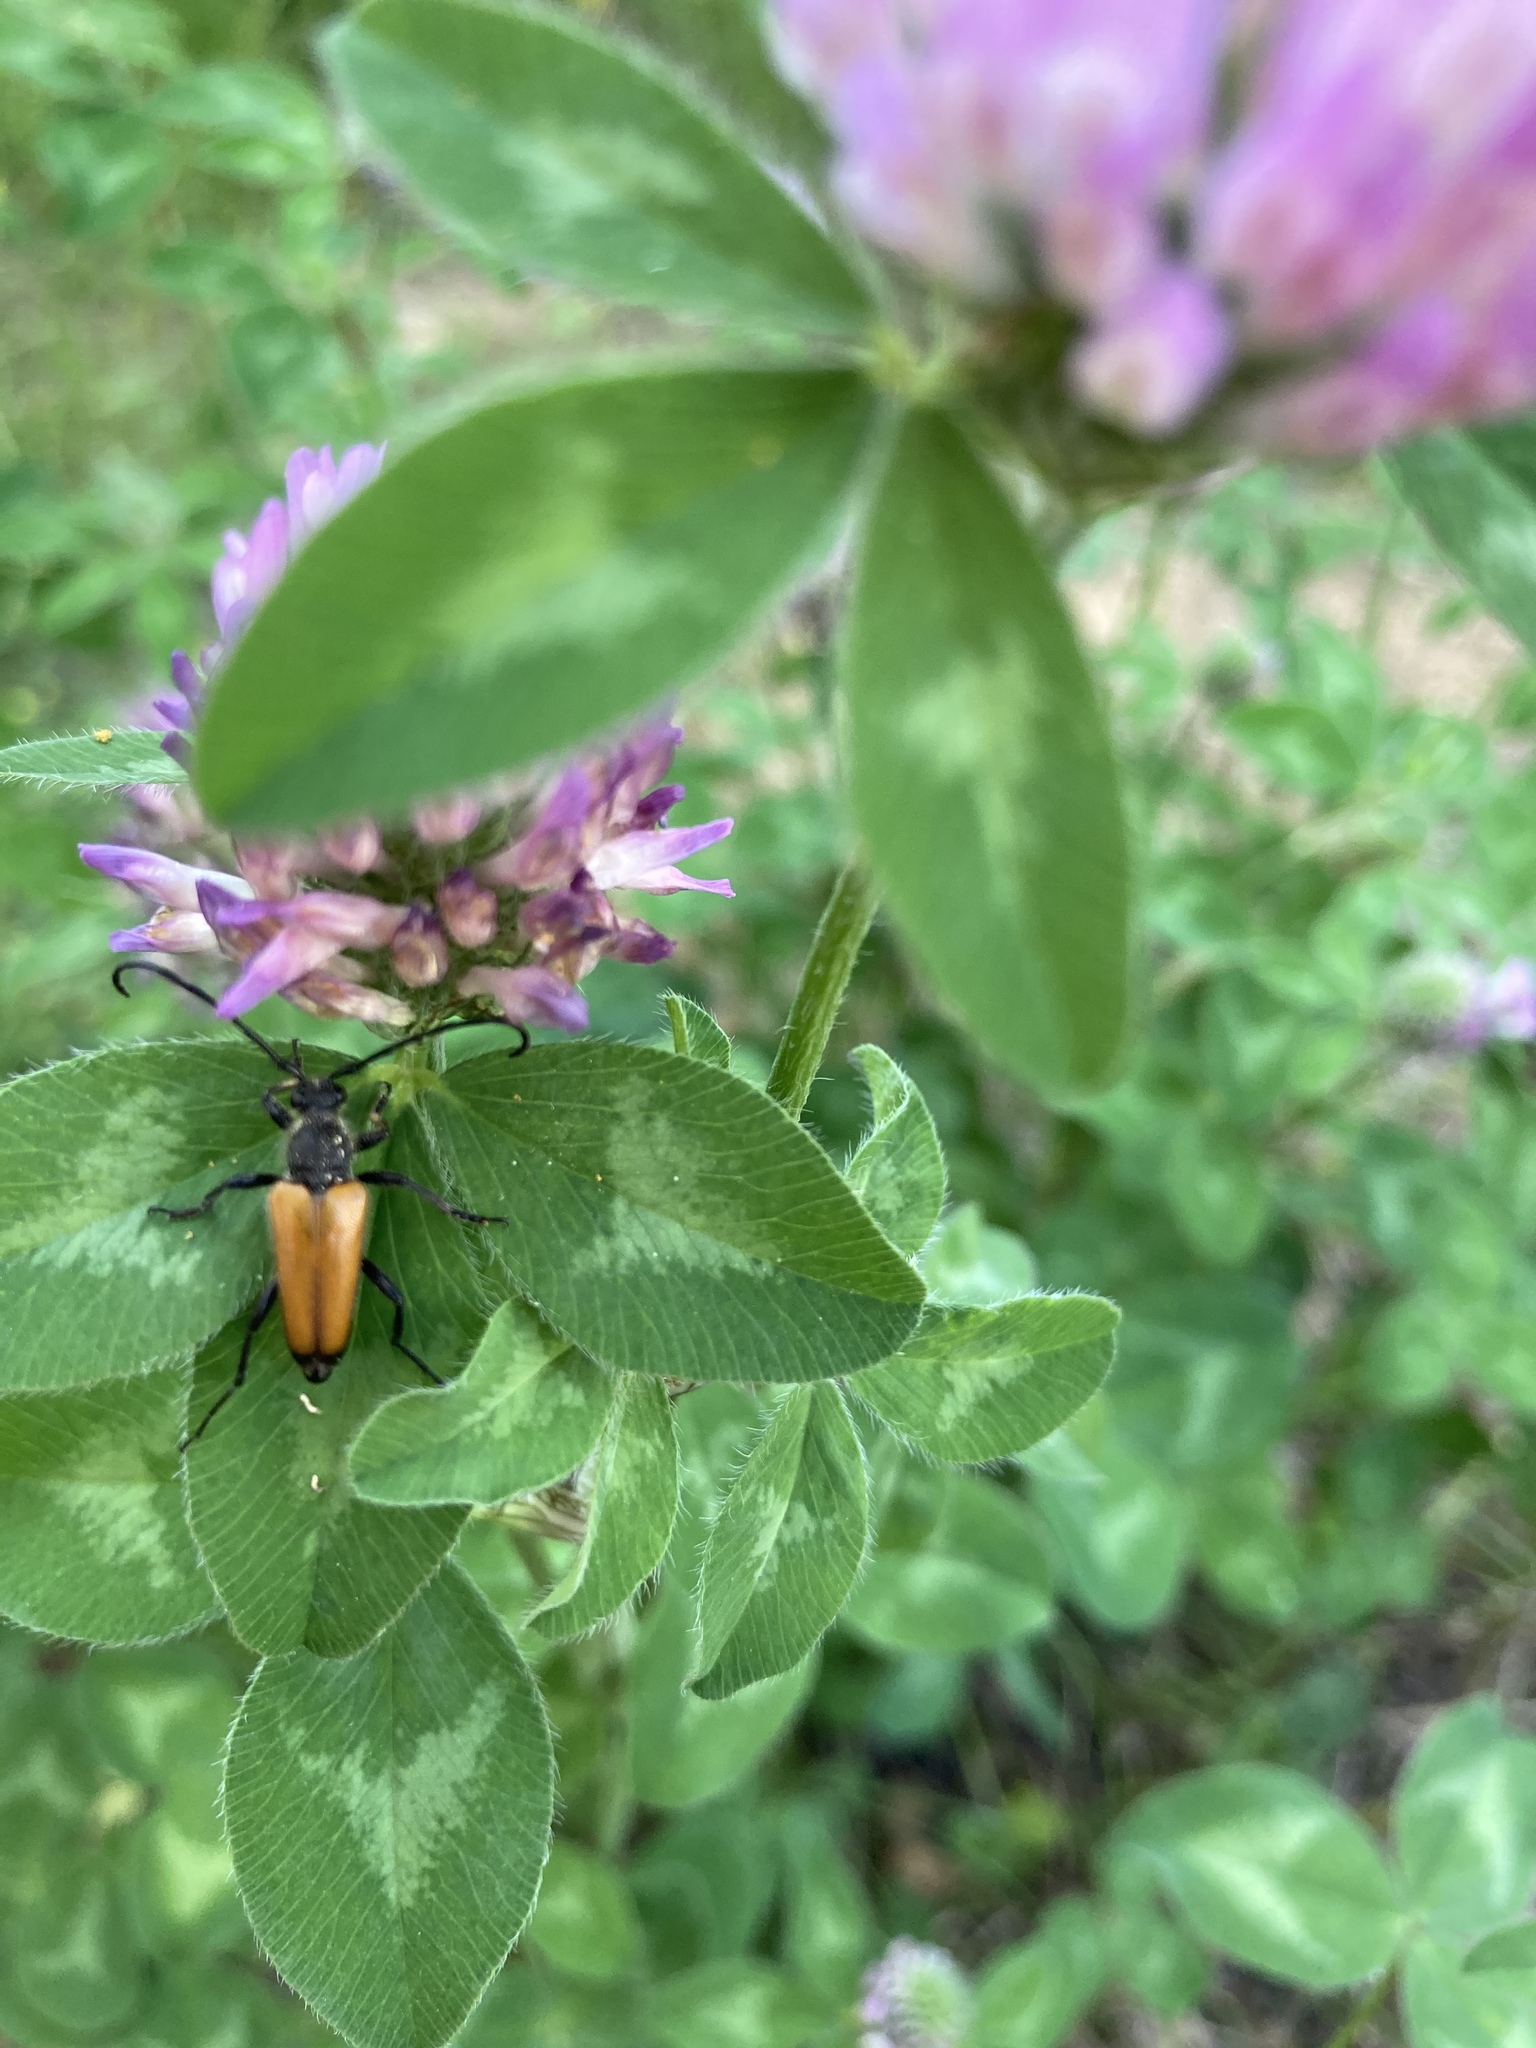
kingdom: Animalia
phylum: Arthropoda
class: Insecta
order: Coleoptera
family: Cerambycidae
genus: Paracorymbia
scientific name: Paracorymbia fulva
